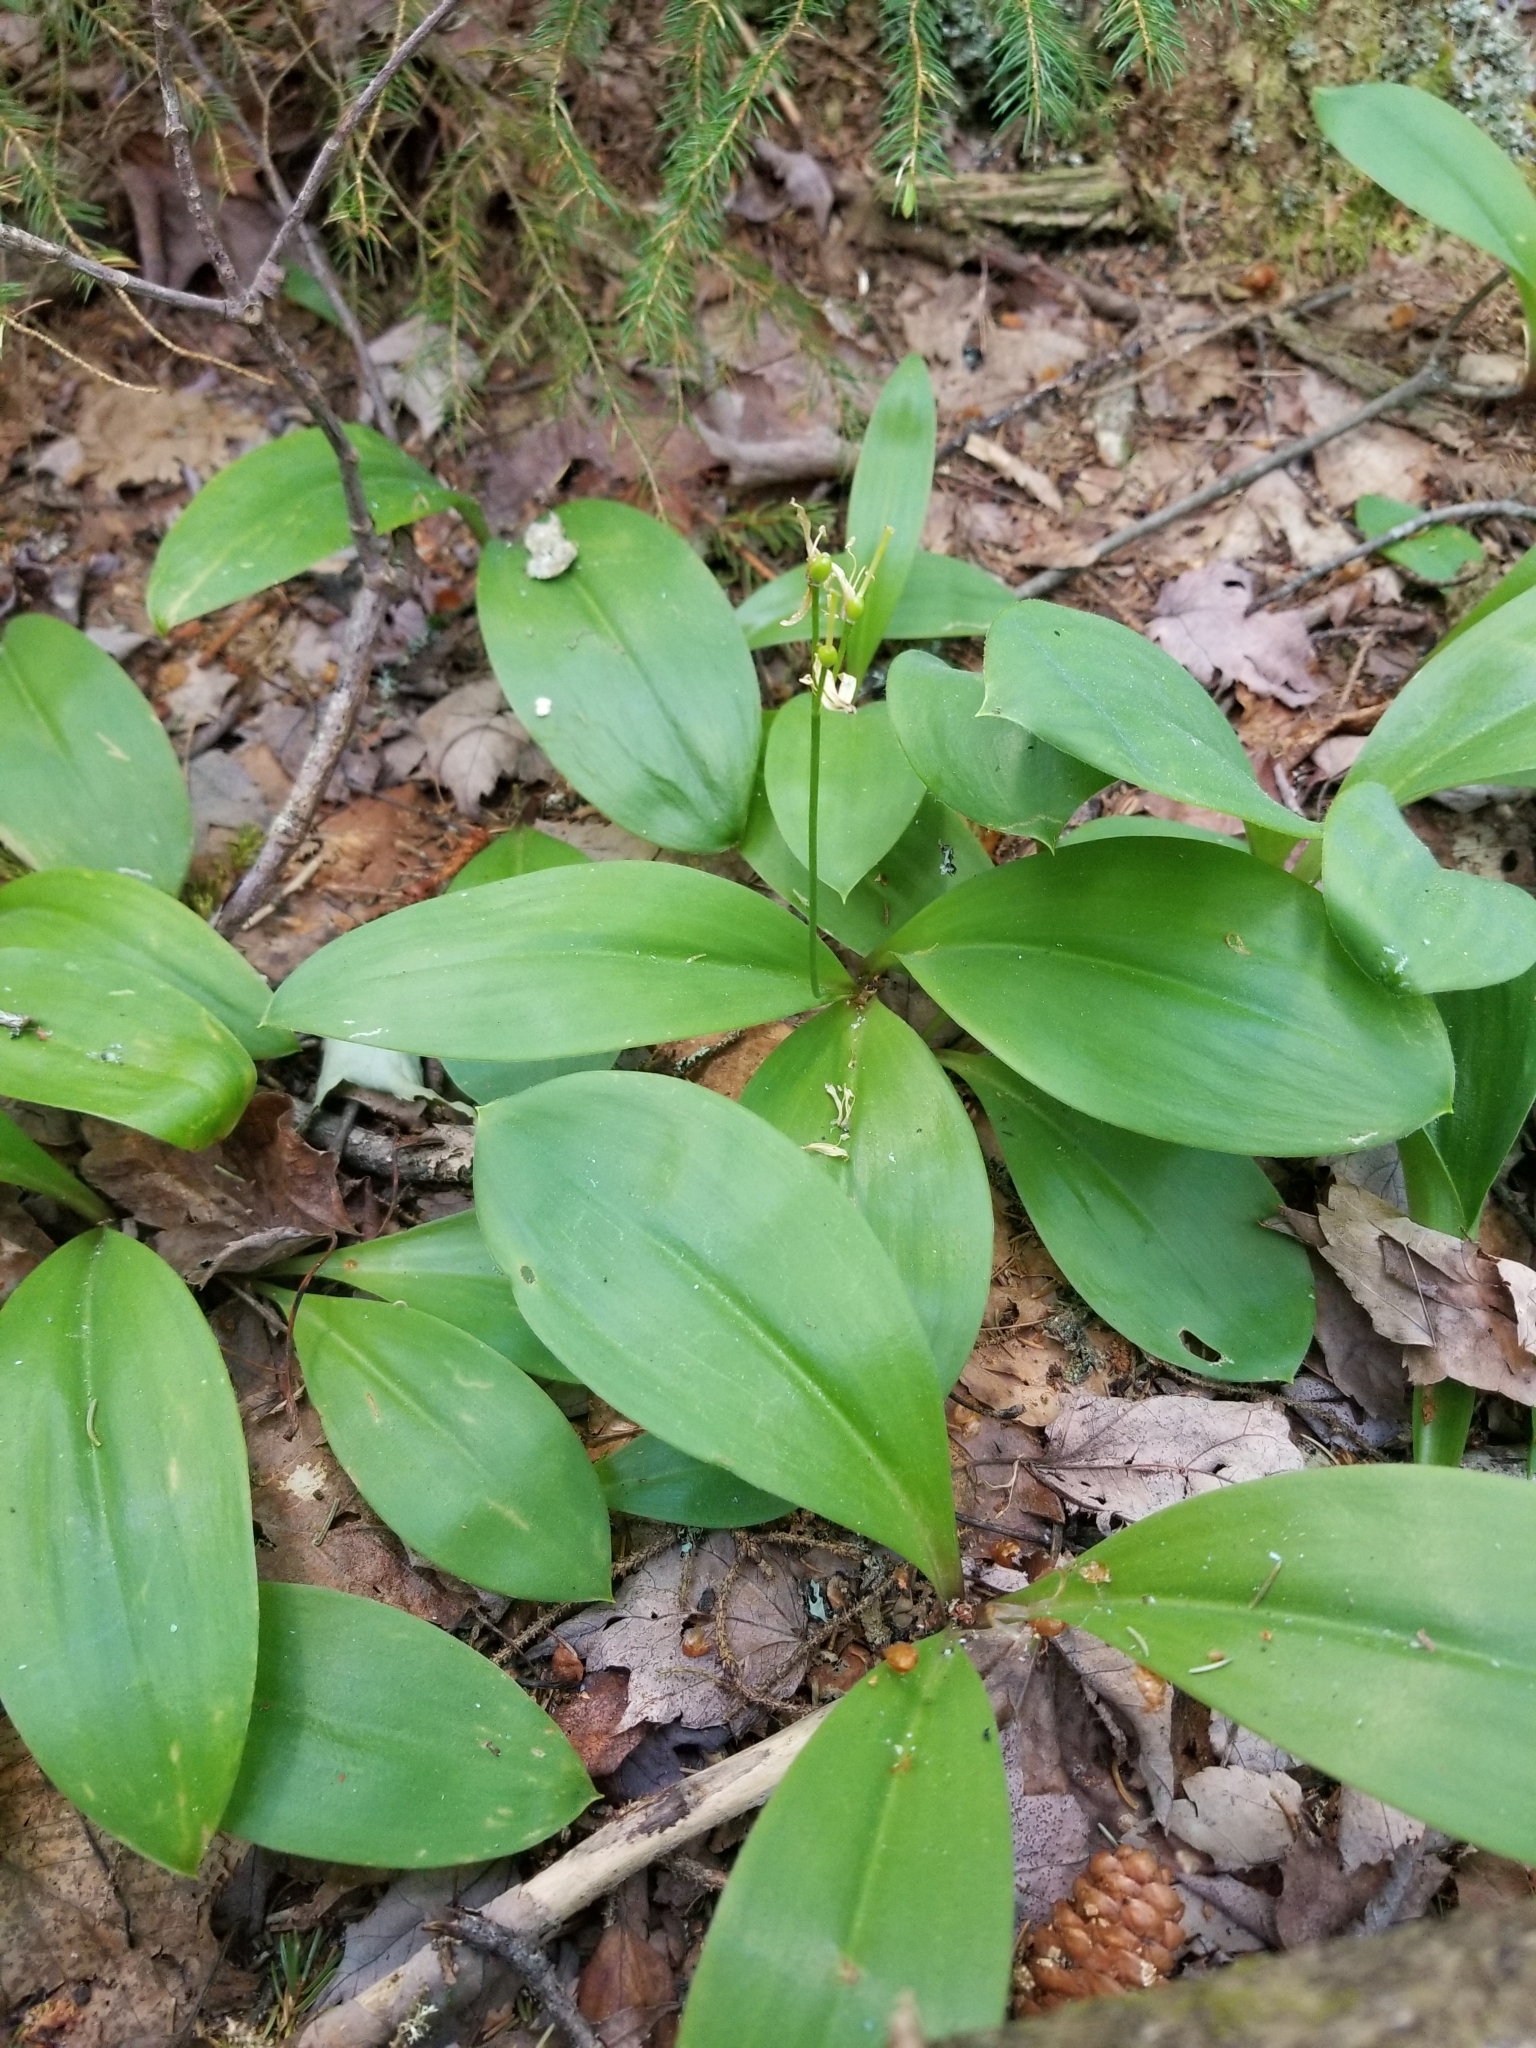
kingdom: Plantae
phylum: Tracheophyta
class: Liliopsida
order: Liliales
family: Liliaceae
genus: Clintonia
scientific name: Clintonia borealis
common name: Yellow clintonia
